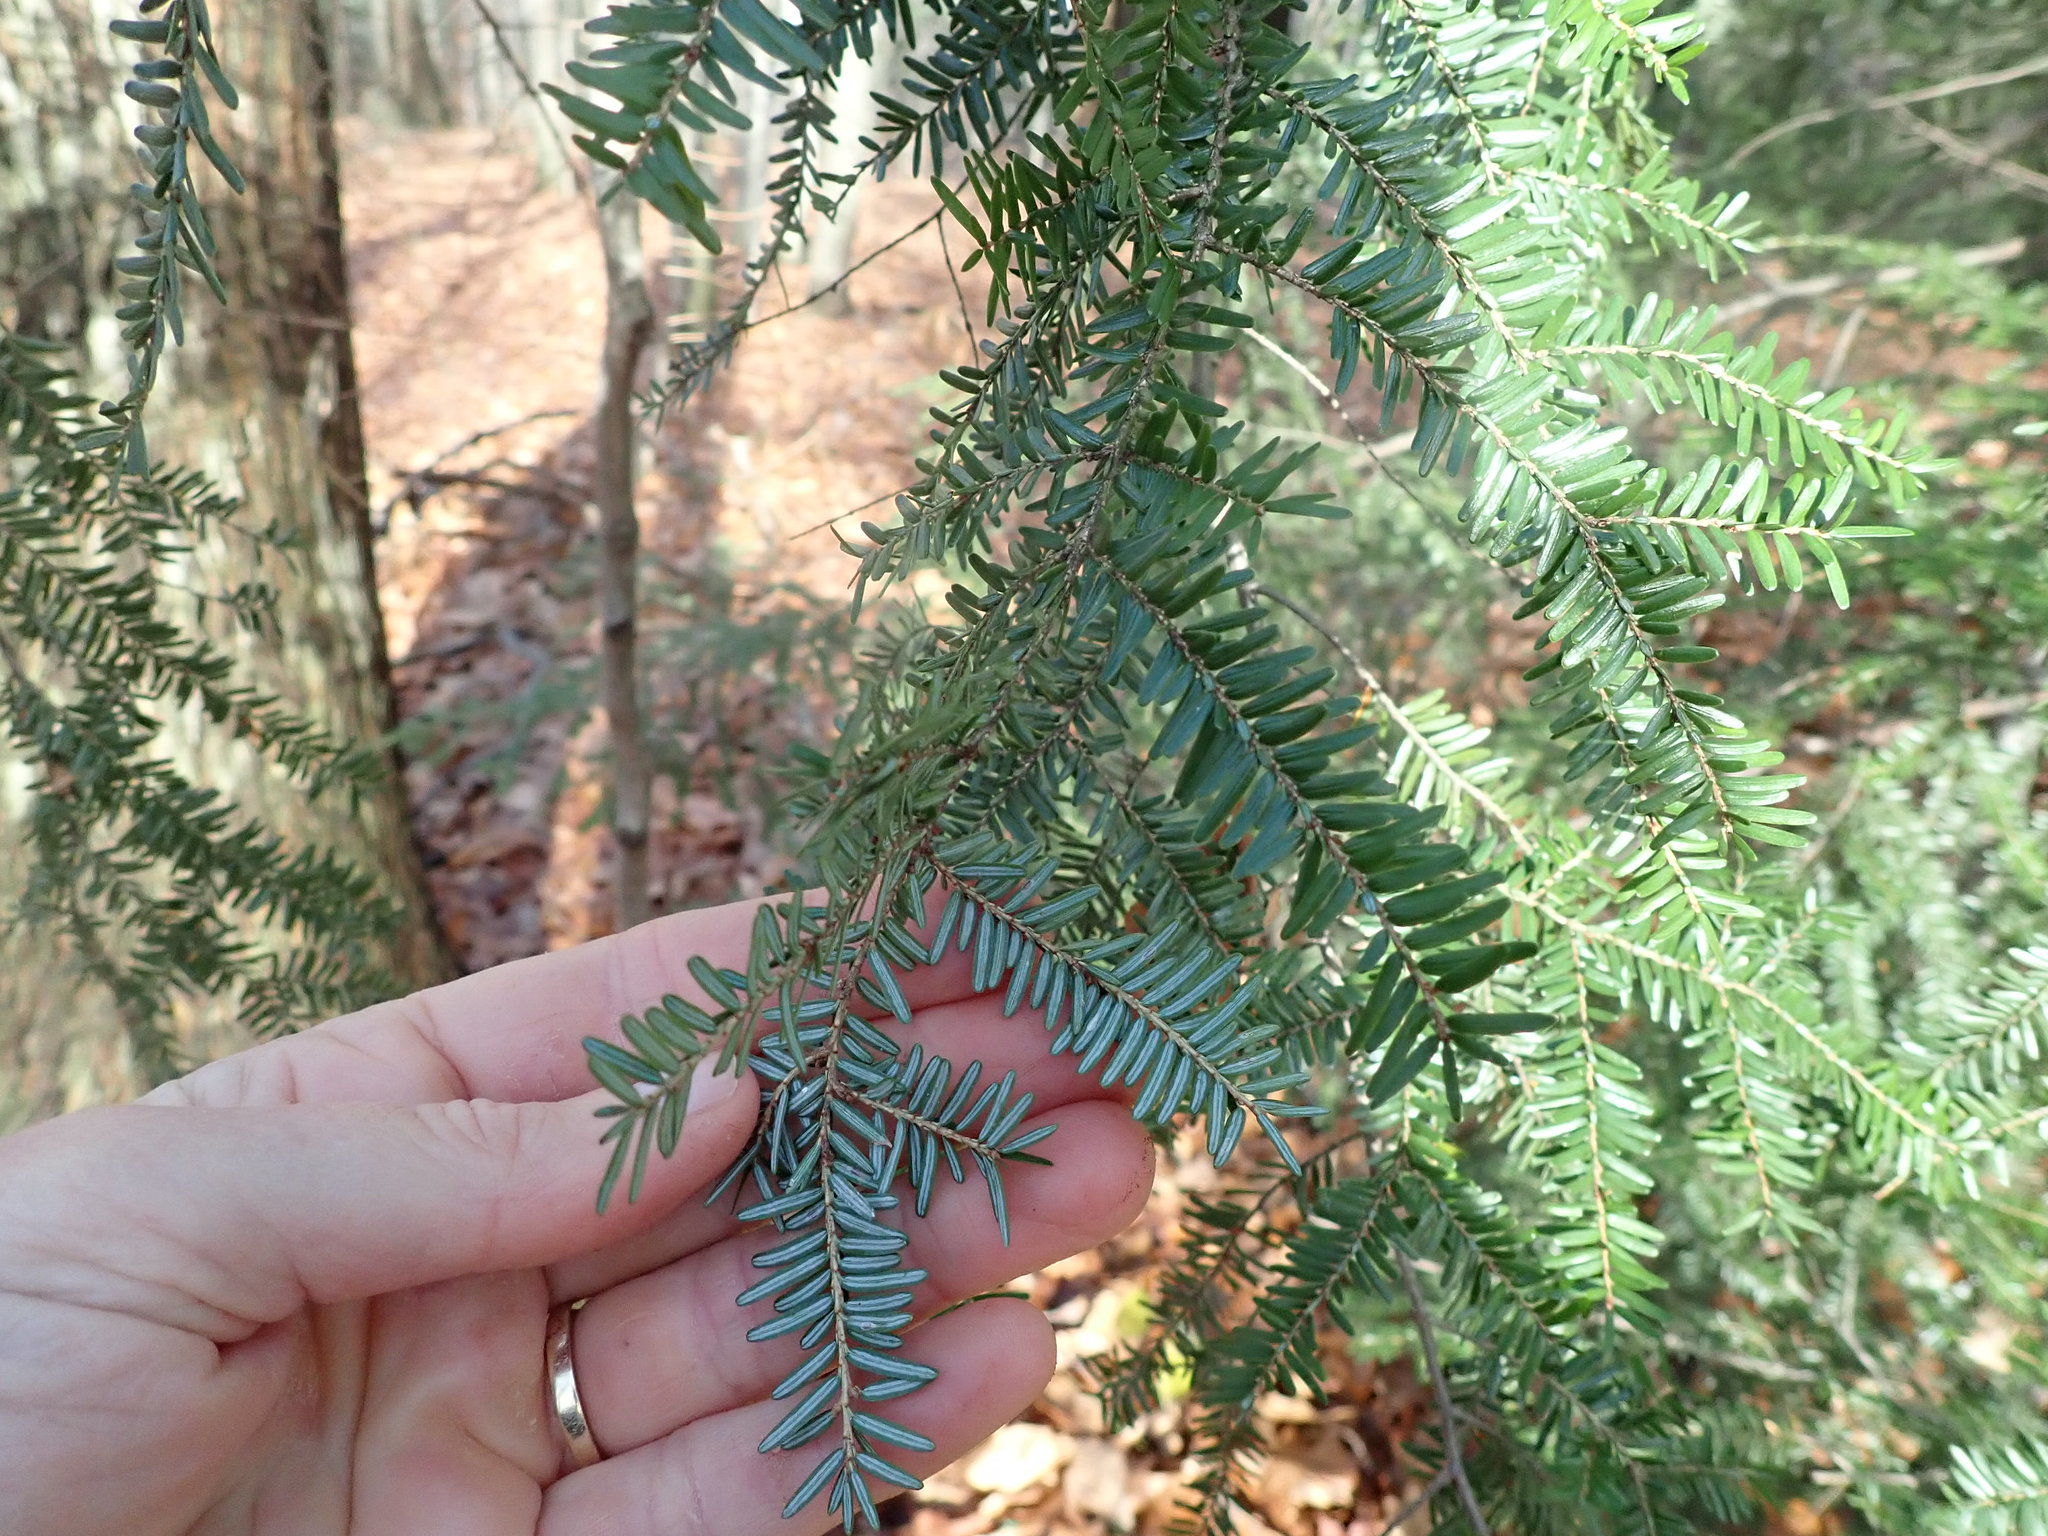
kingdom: Plantae
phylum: Tracheophyta
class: Pinopsida
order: Pinales
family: Pinaceae
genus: Tsuga
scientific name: Tsuga canadensis
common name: Eastern hemlock
